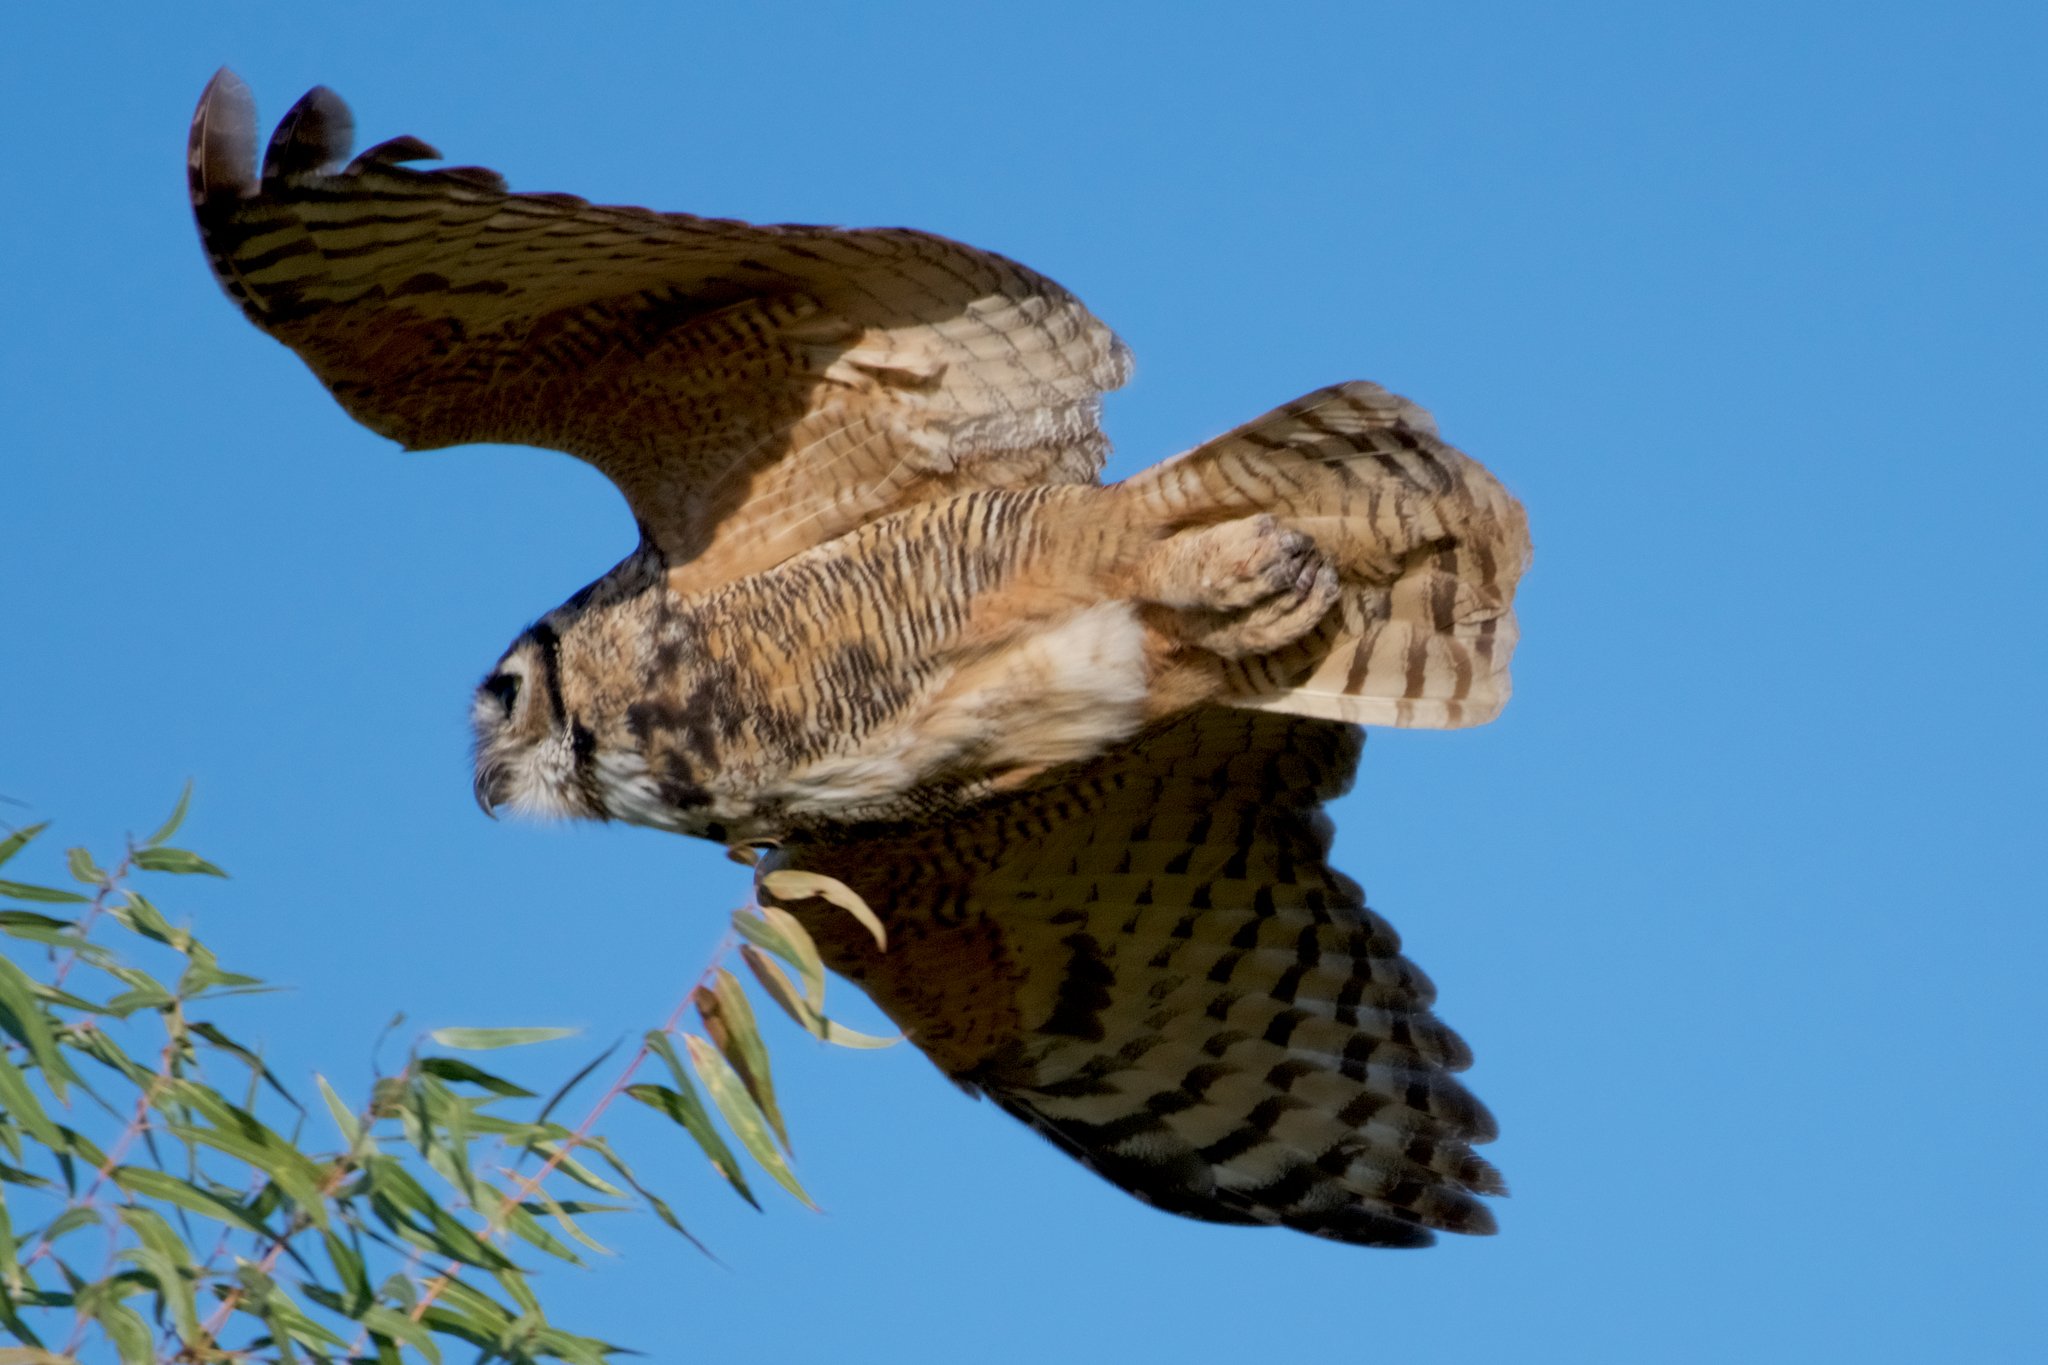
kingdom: Animalia
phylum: Chordata
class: Aves
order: Strigiformes
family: Strigidae
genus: Bubo
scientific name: Bubo virginianus
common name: Great horned owl
